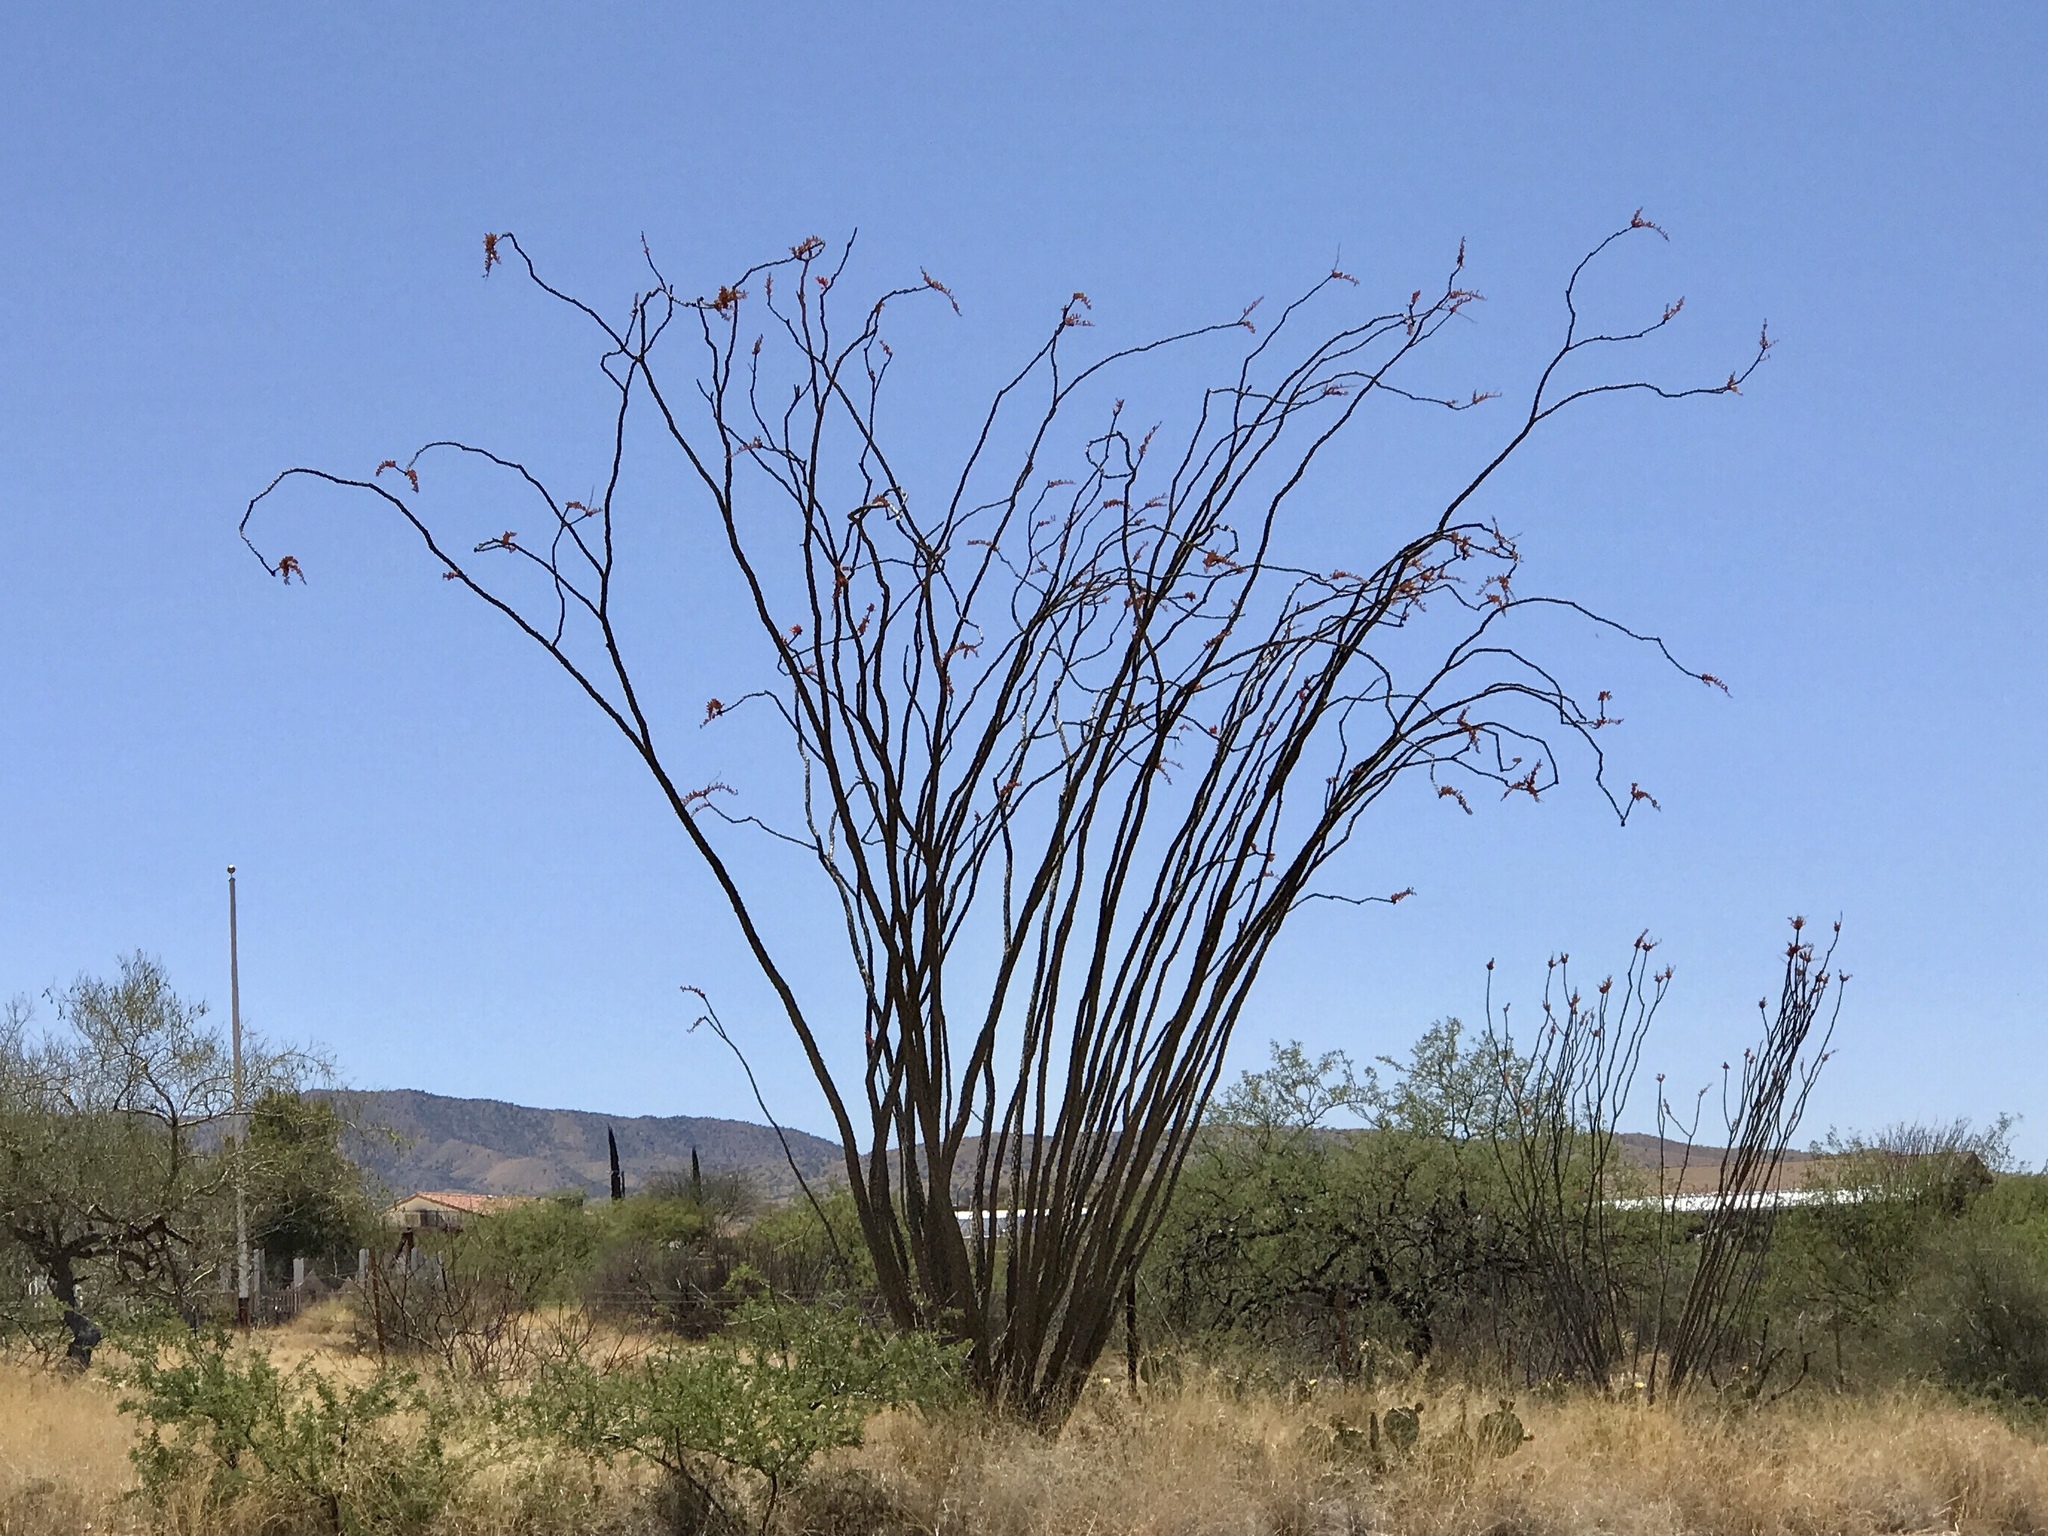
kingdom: Plantae
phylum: Tracheophyta
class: Magnoliopsida
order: Ericales
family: Fouquieriaceae
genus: Fouquieria
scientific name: Fouquieria splendens
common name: Vine-cactus
